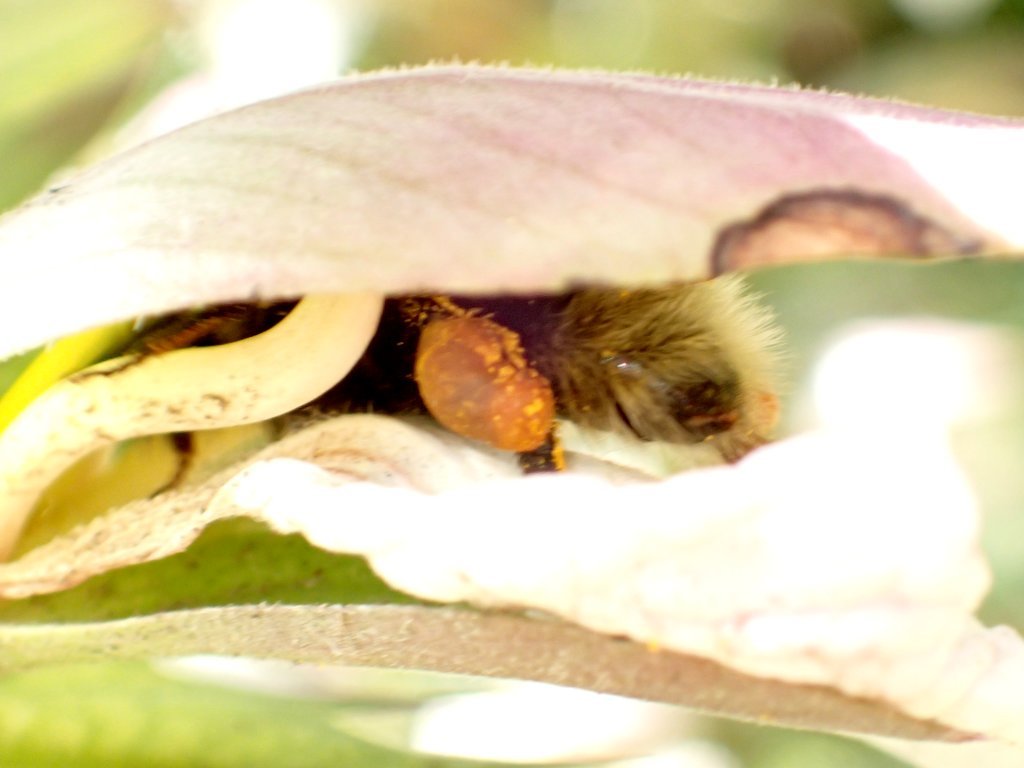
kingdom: Plantae
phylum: Tracheophyta
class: Magnoliopsida
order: Lamiales
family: Acanthaceae
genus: Acanthus
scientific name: Acanthus mollis
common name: Bear's-breech
